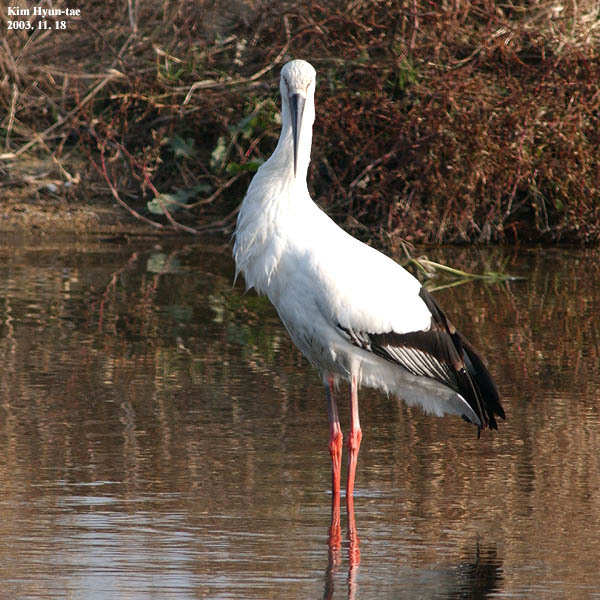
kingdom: Animalia
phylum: Chordata
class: Aves
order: Ciconiiformes
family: Ciconiidae
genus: Ciconia
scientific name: Ciconia boyciana
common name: Oriental stork
